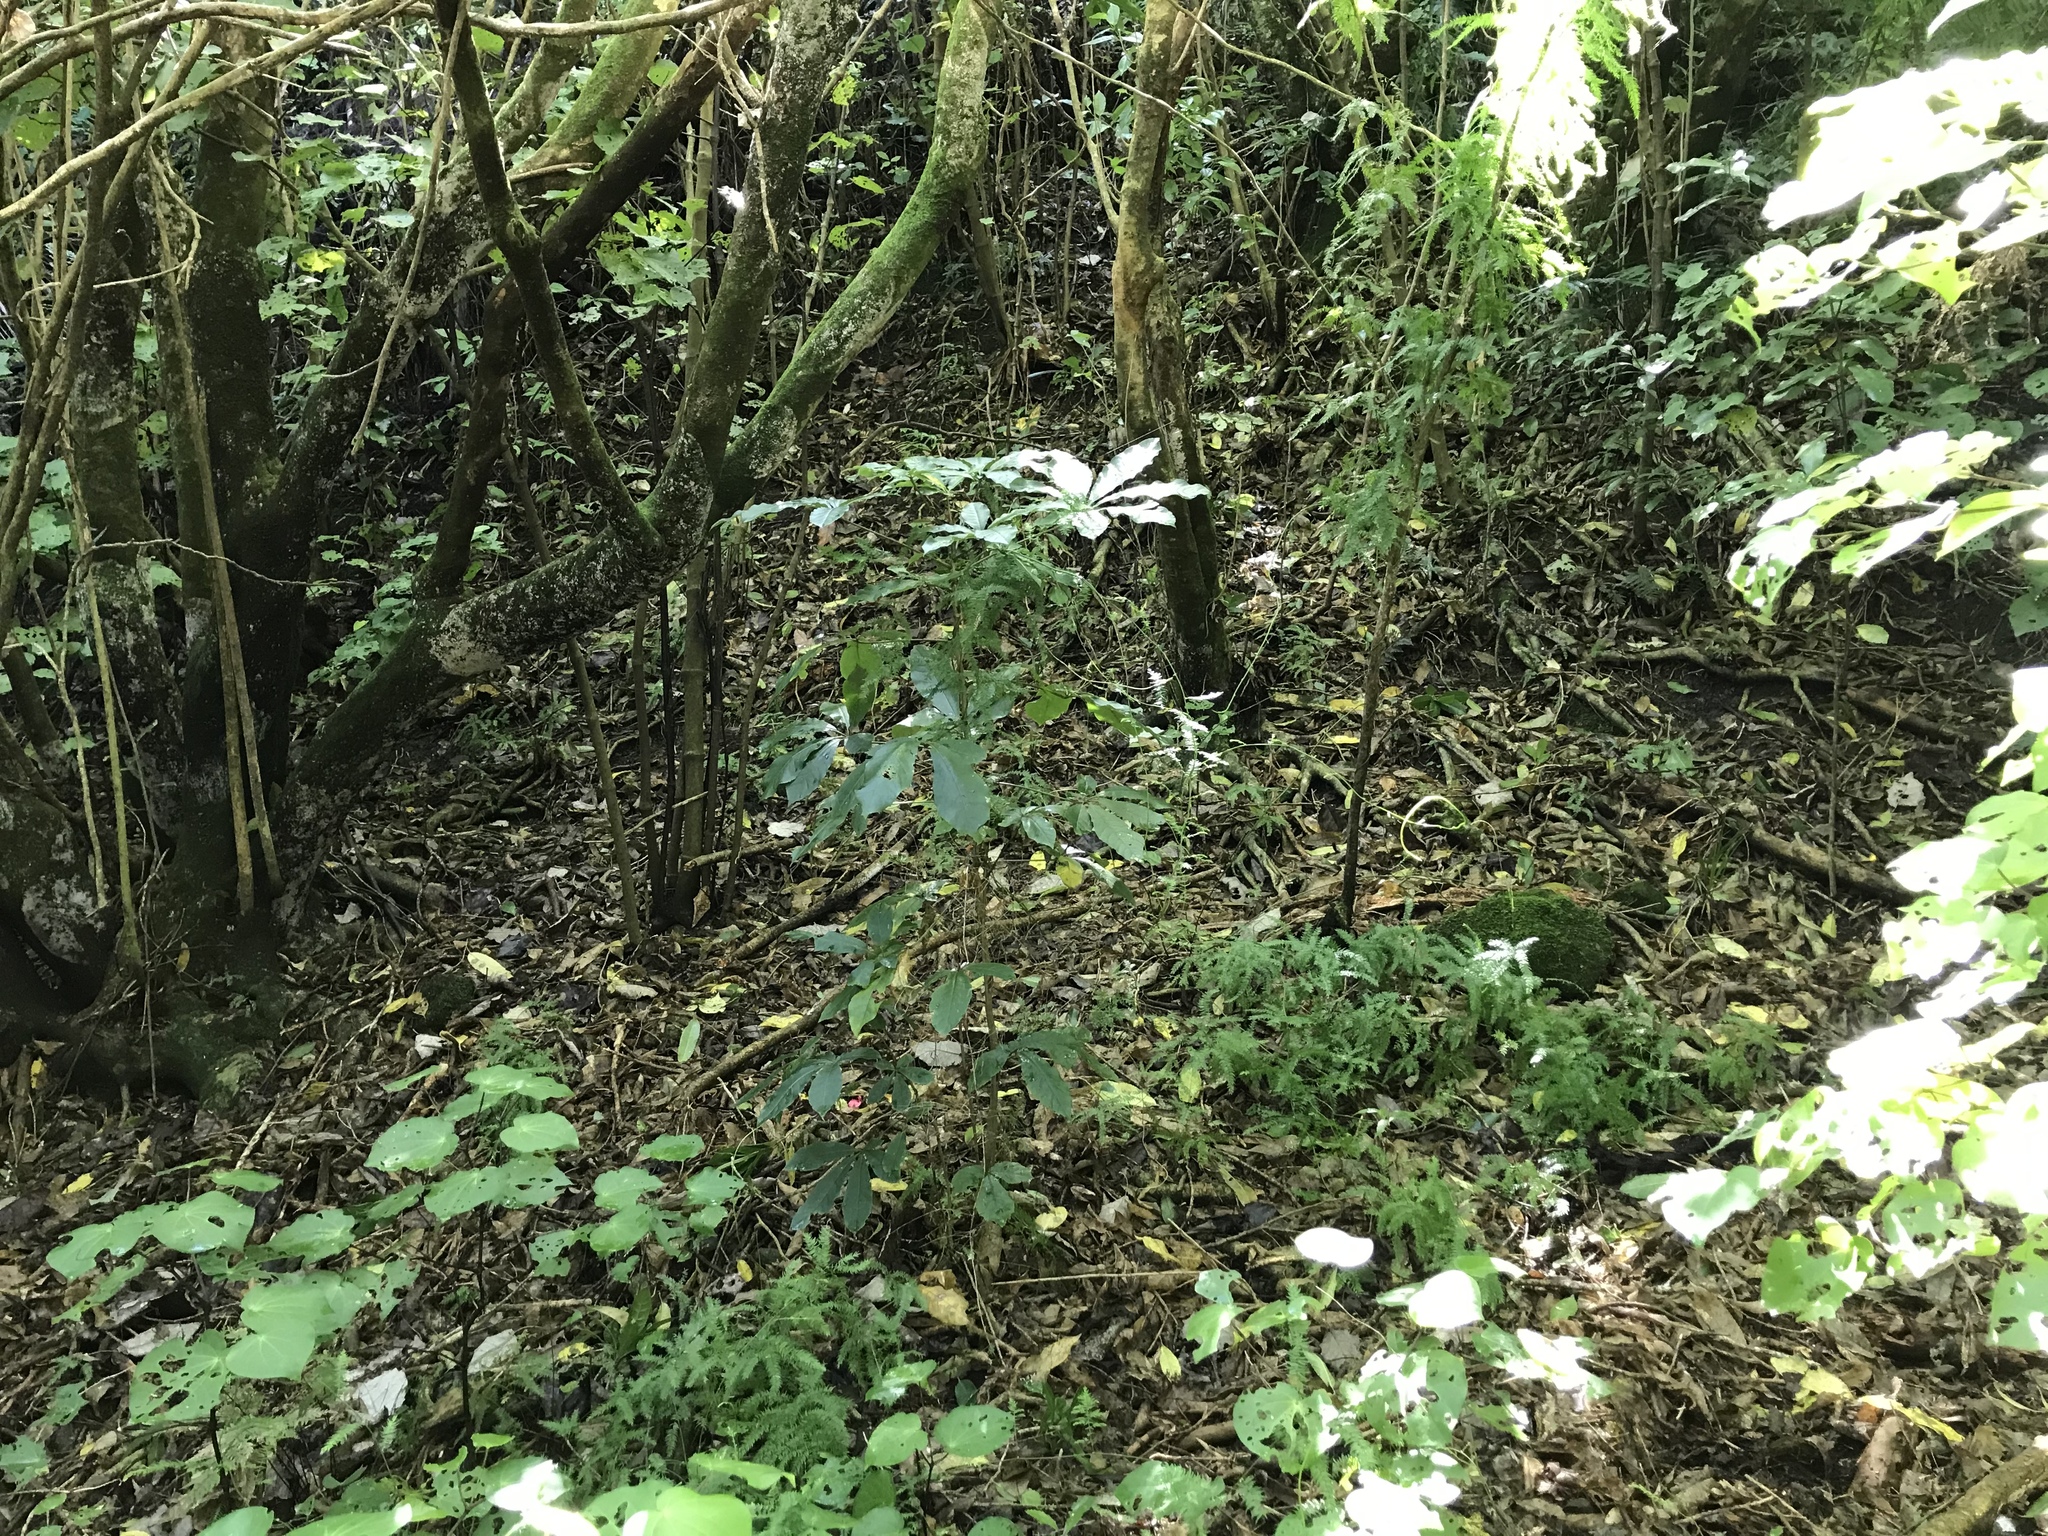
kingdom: Plantae
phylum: Tracheophyta
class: Magnoliopsida
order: Apiales
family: Araliaceae
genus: Schefflera
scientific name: Schefflera digitata
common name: Pate
